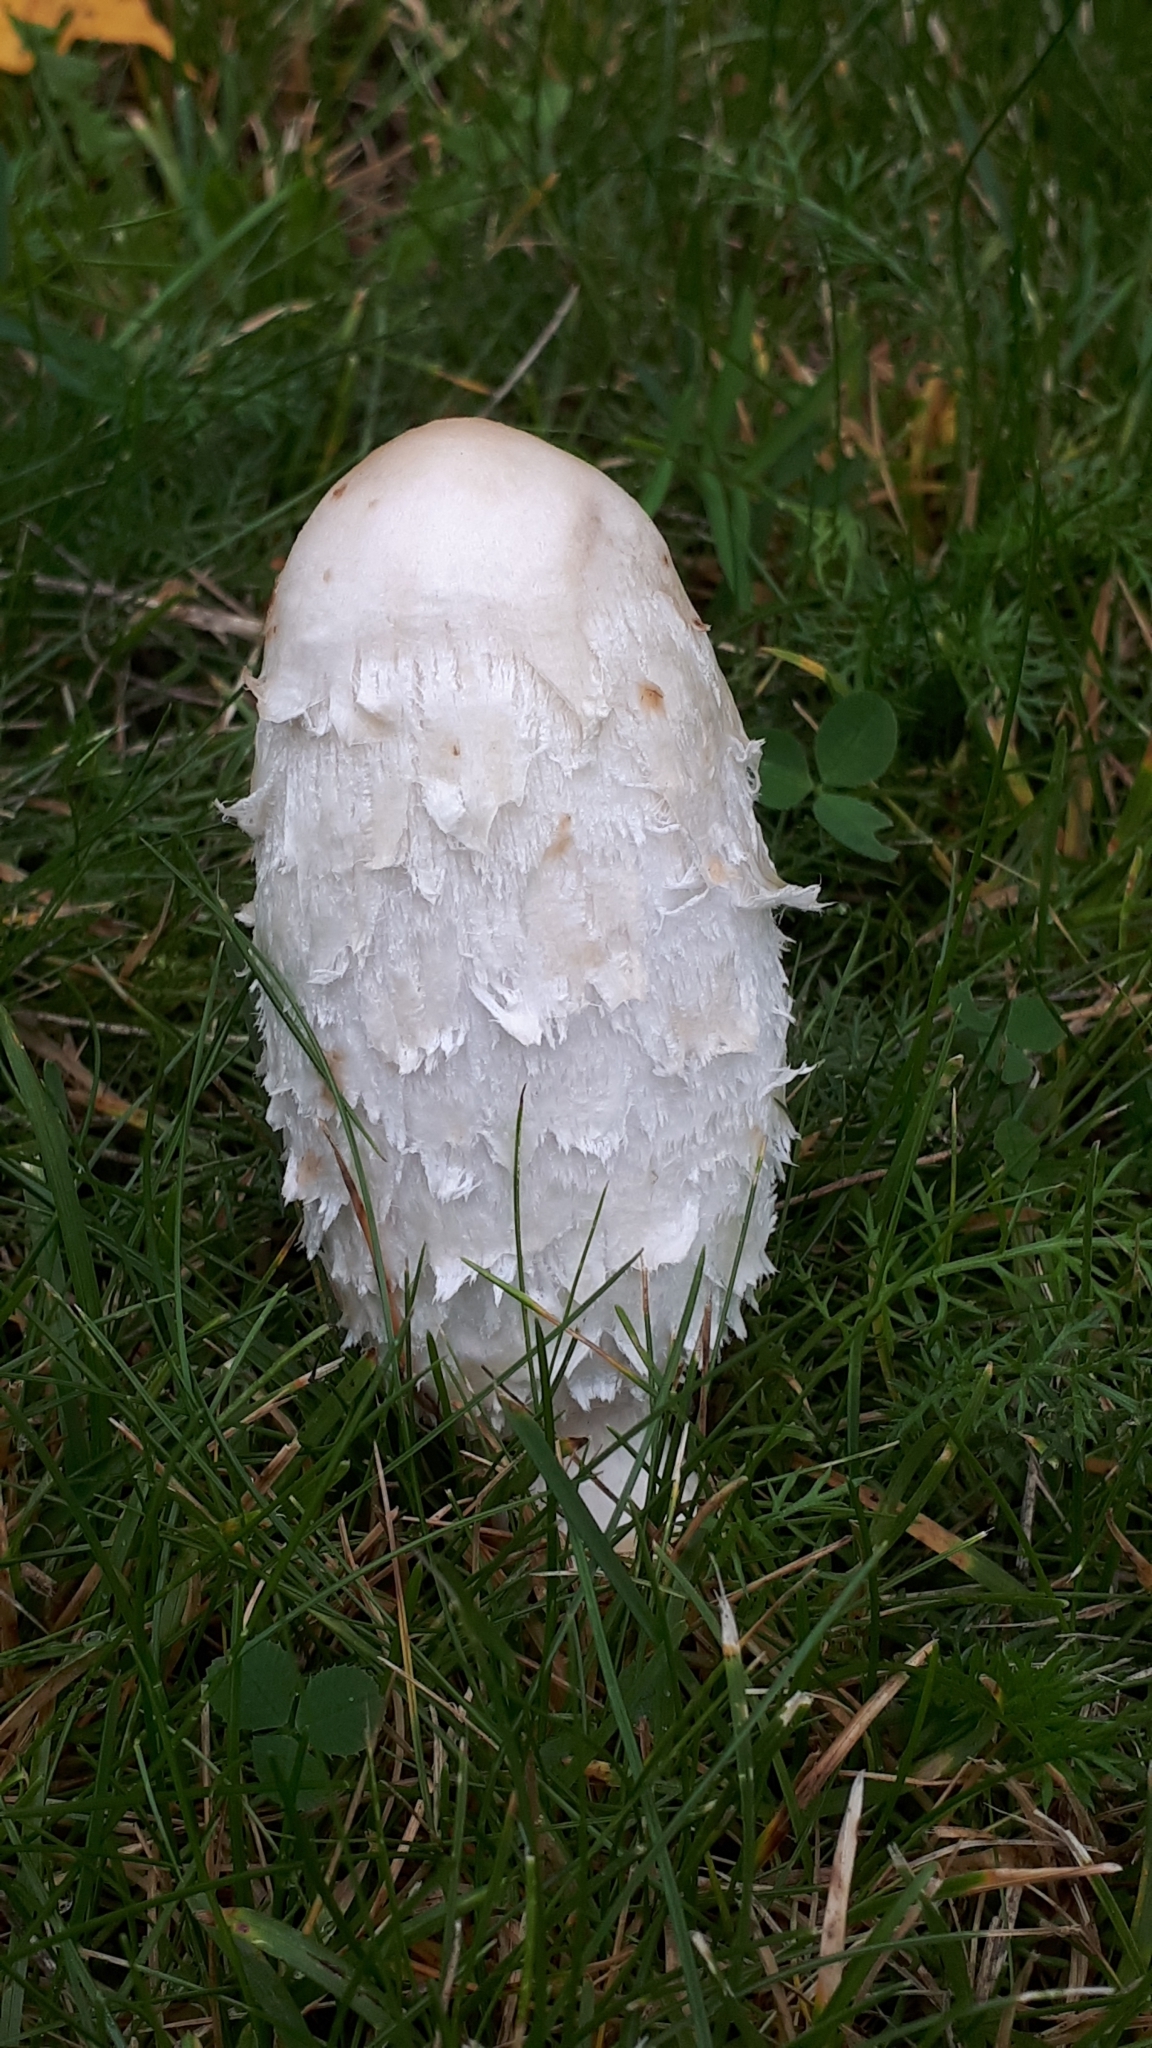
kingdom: Fungi
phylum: Basidiomycota
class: Agaricomycetes
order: Agaricales
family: Agaricaceae
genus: Coprinus
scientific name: Coprinus comatus
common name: Lawyer's wig
